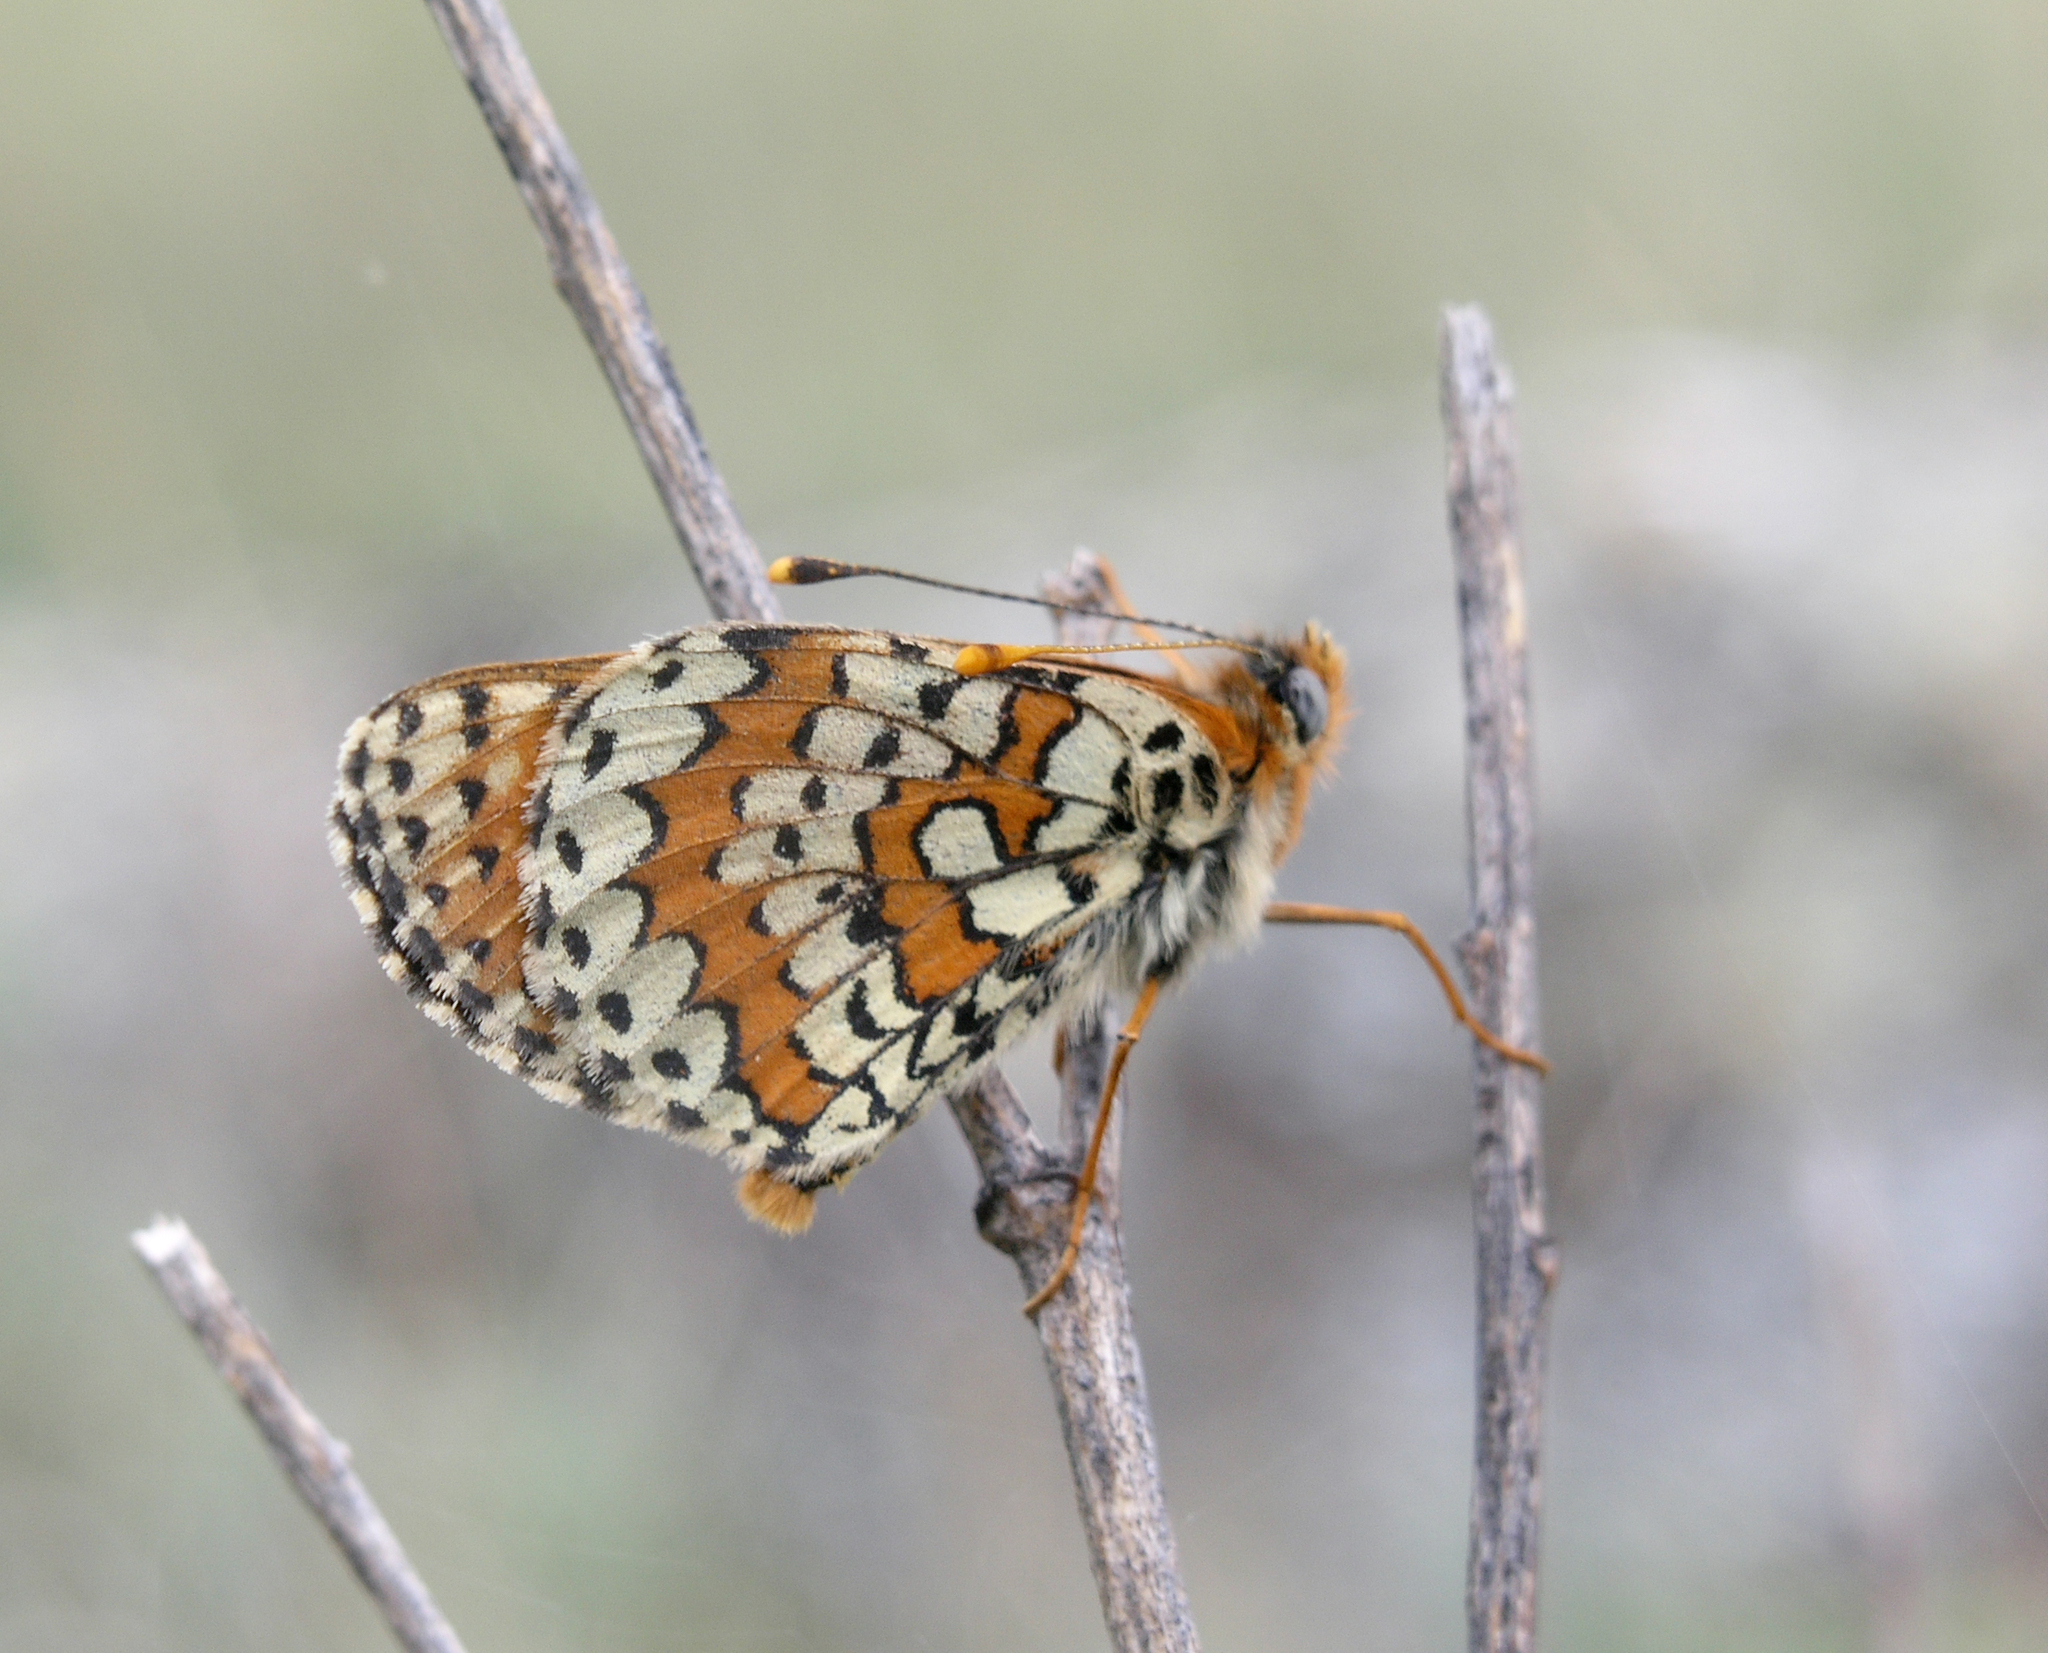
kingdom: Animalia
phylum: Arthropoda
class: Insecta
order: Lepidoptera
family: Nymphalidae
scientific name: Nymphalidae
